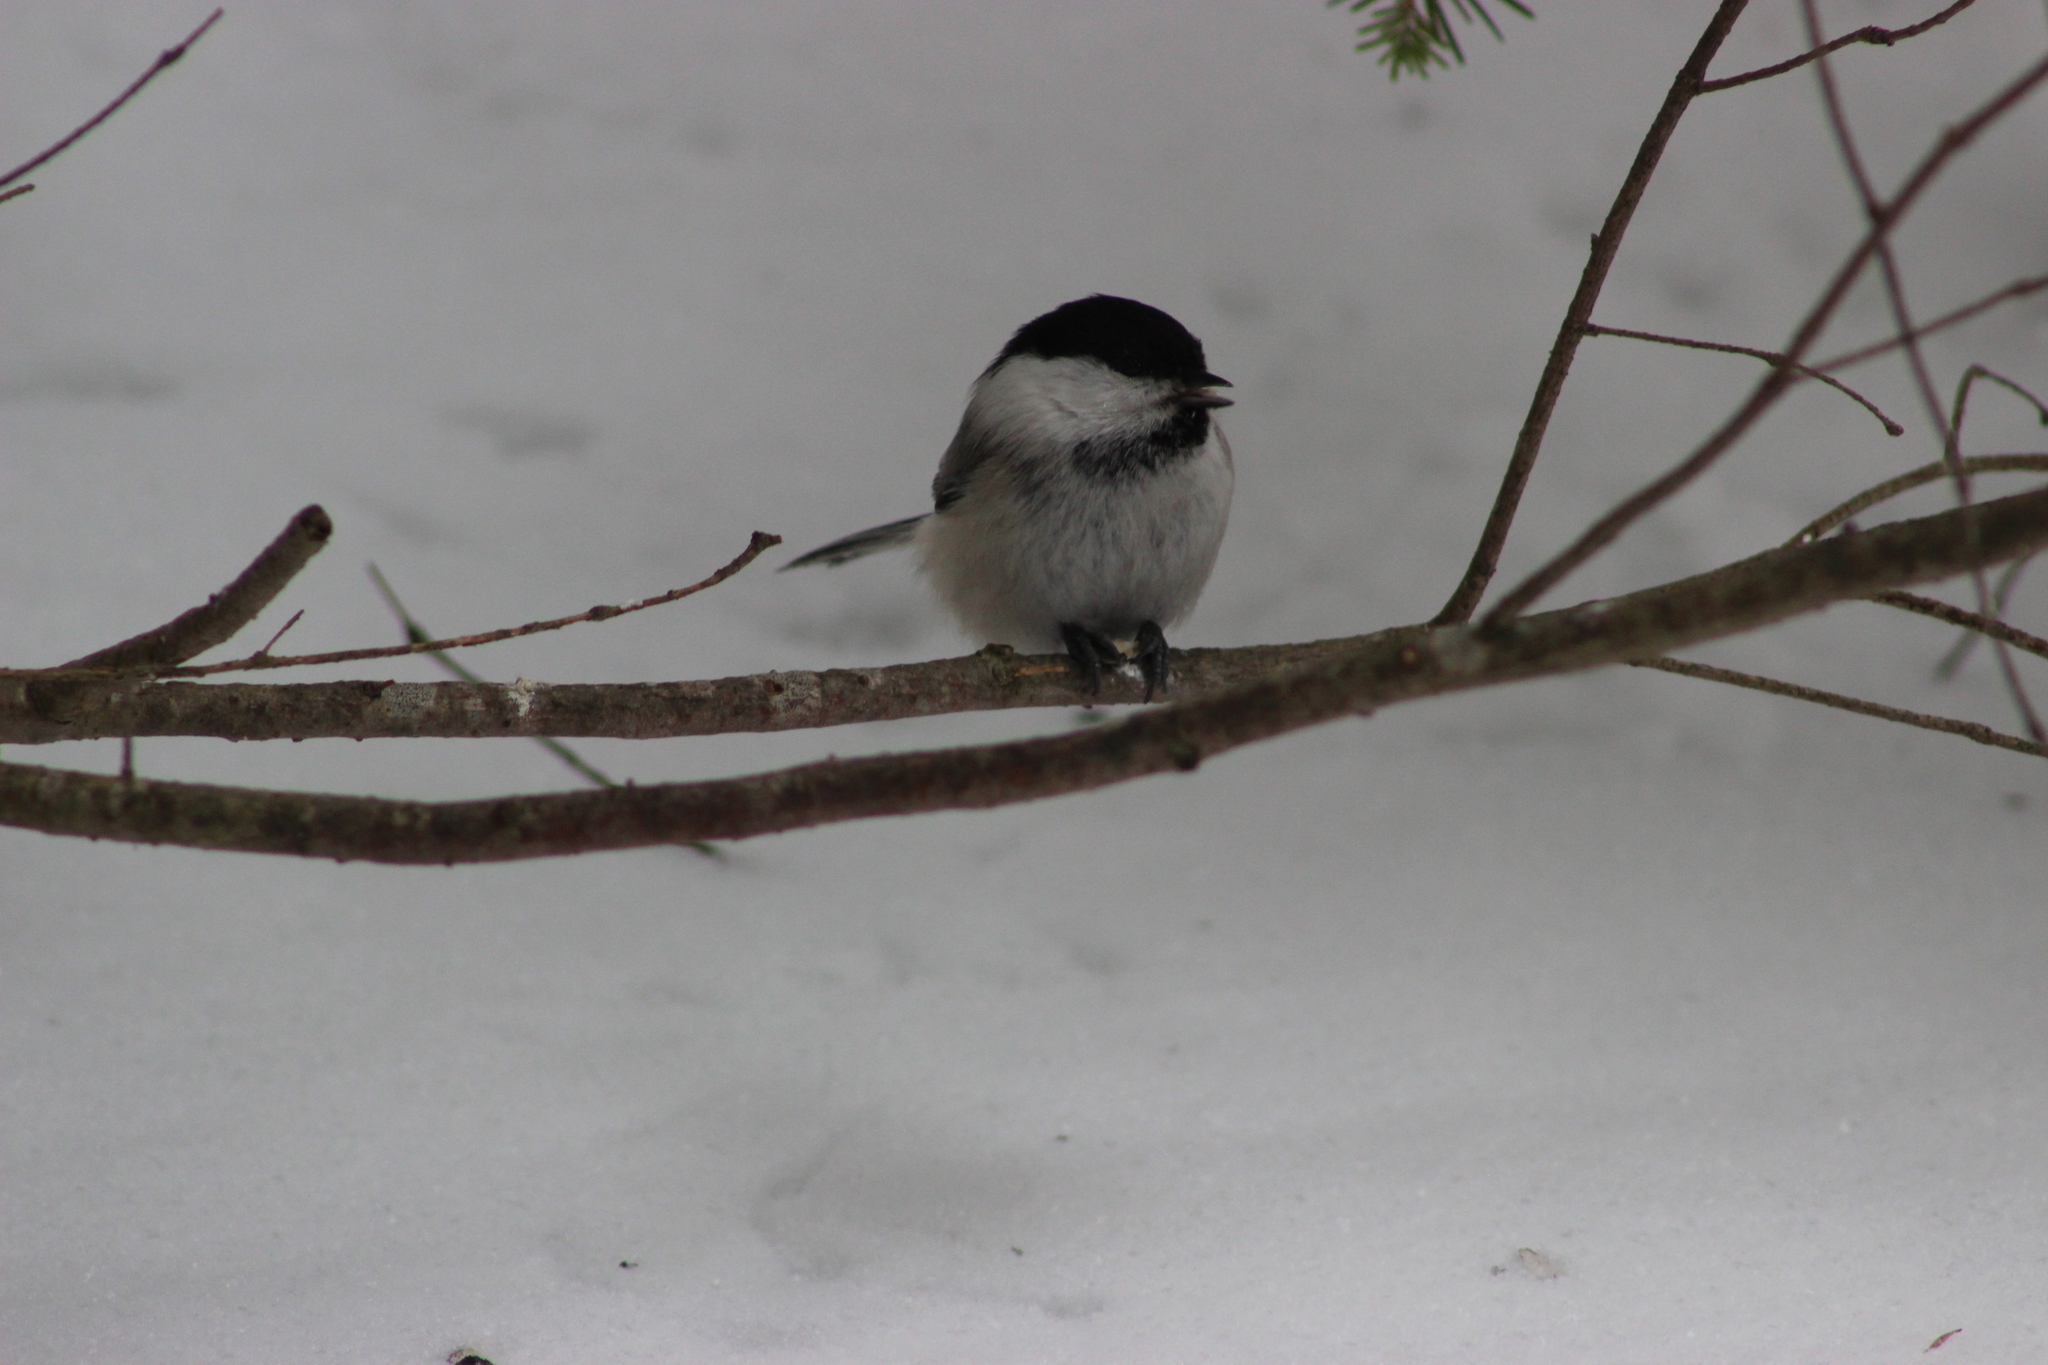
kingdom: Animalia
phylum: Chordata
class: Aves
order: Passeriformes
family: Paridae
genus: Poecile
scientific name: Poecile montanus
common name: Willow tit
